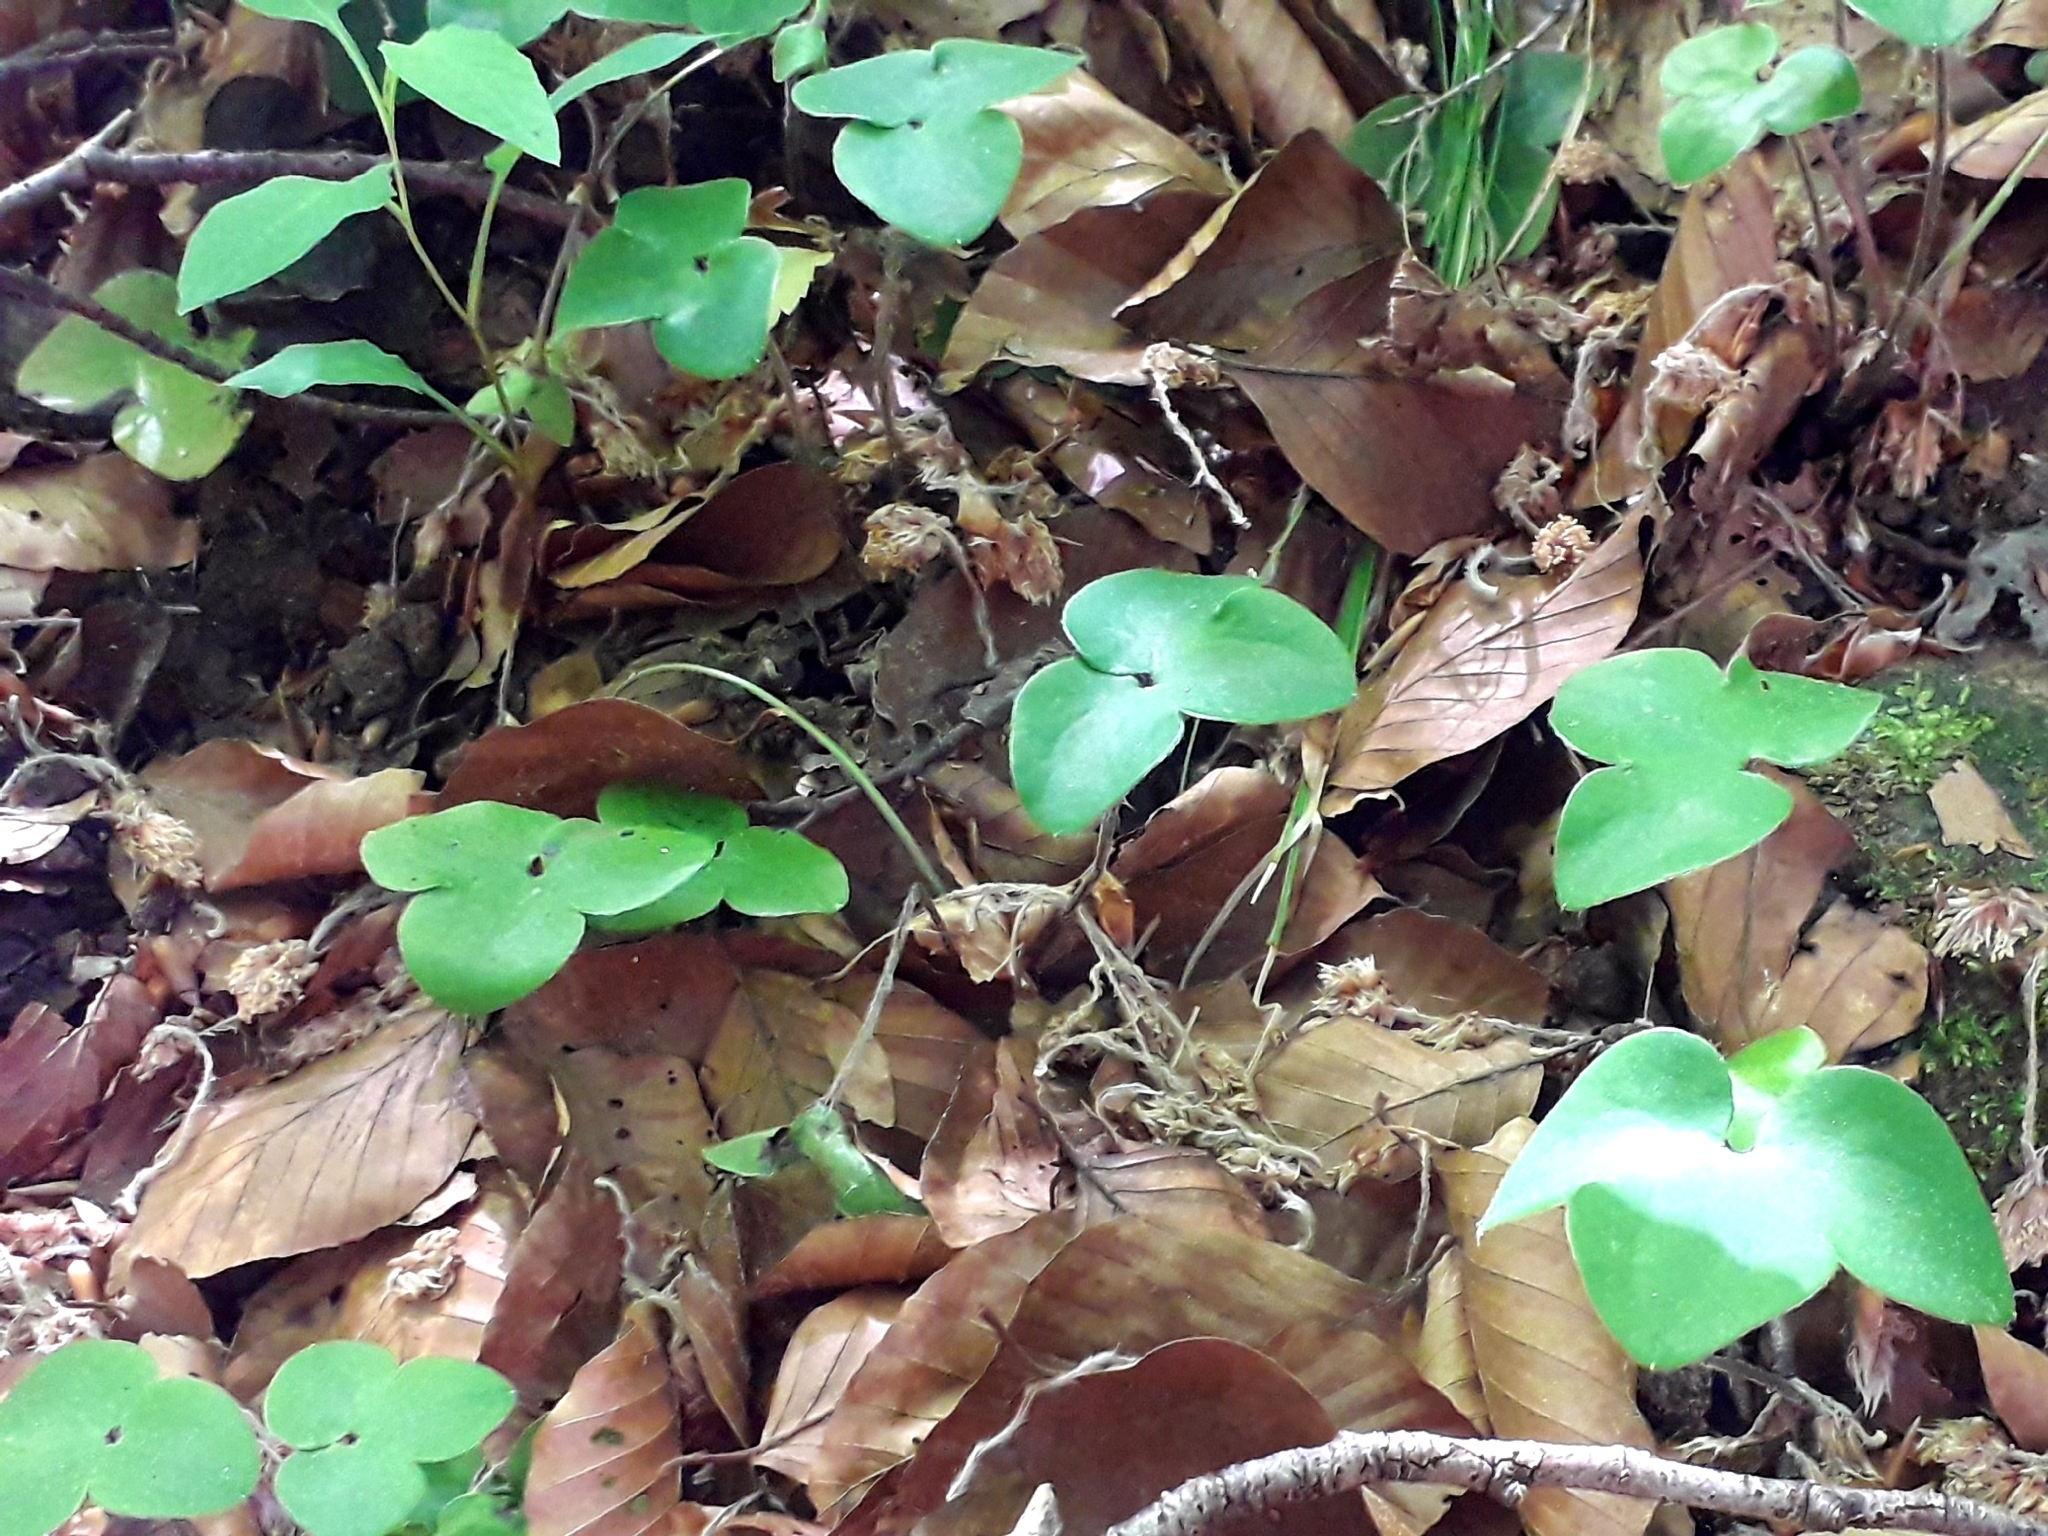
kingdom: Plantae
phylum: Tracheophyta
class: Magnoliopsida
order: Ranunculales
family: Ranunculaceae
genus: Hepatica
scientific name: Hepatica nobilis
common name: Liverleaf
